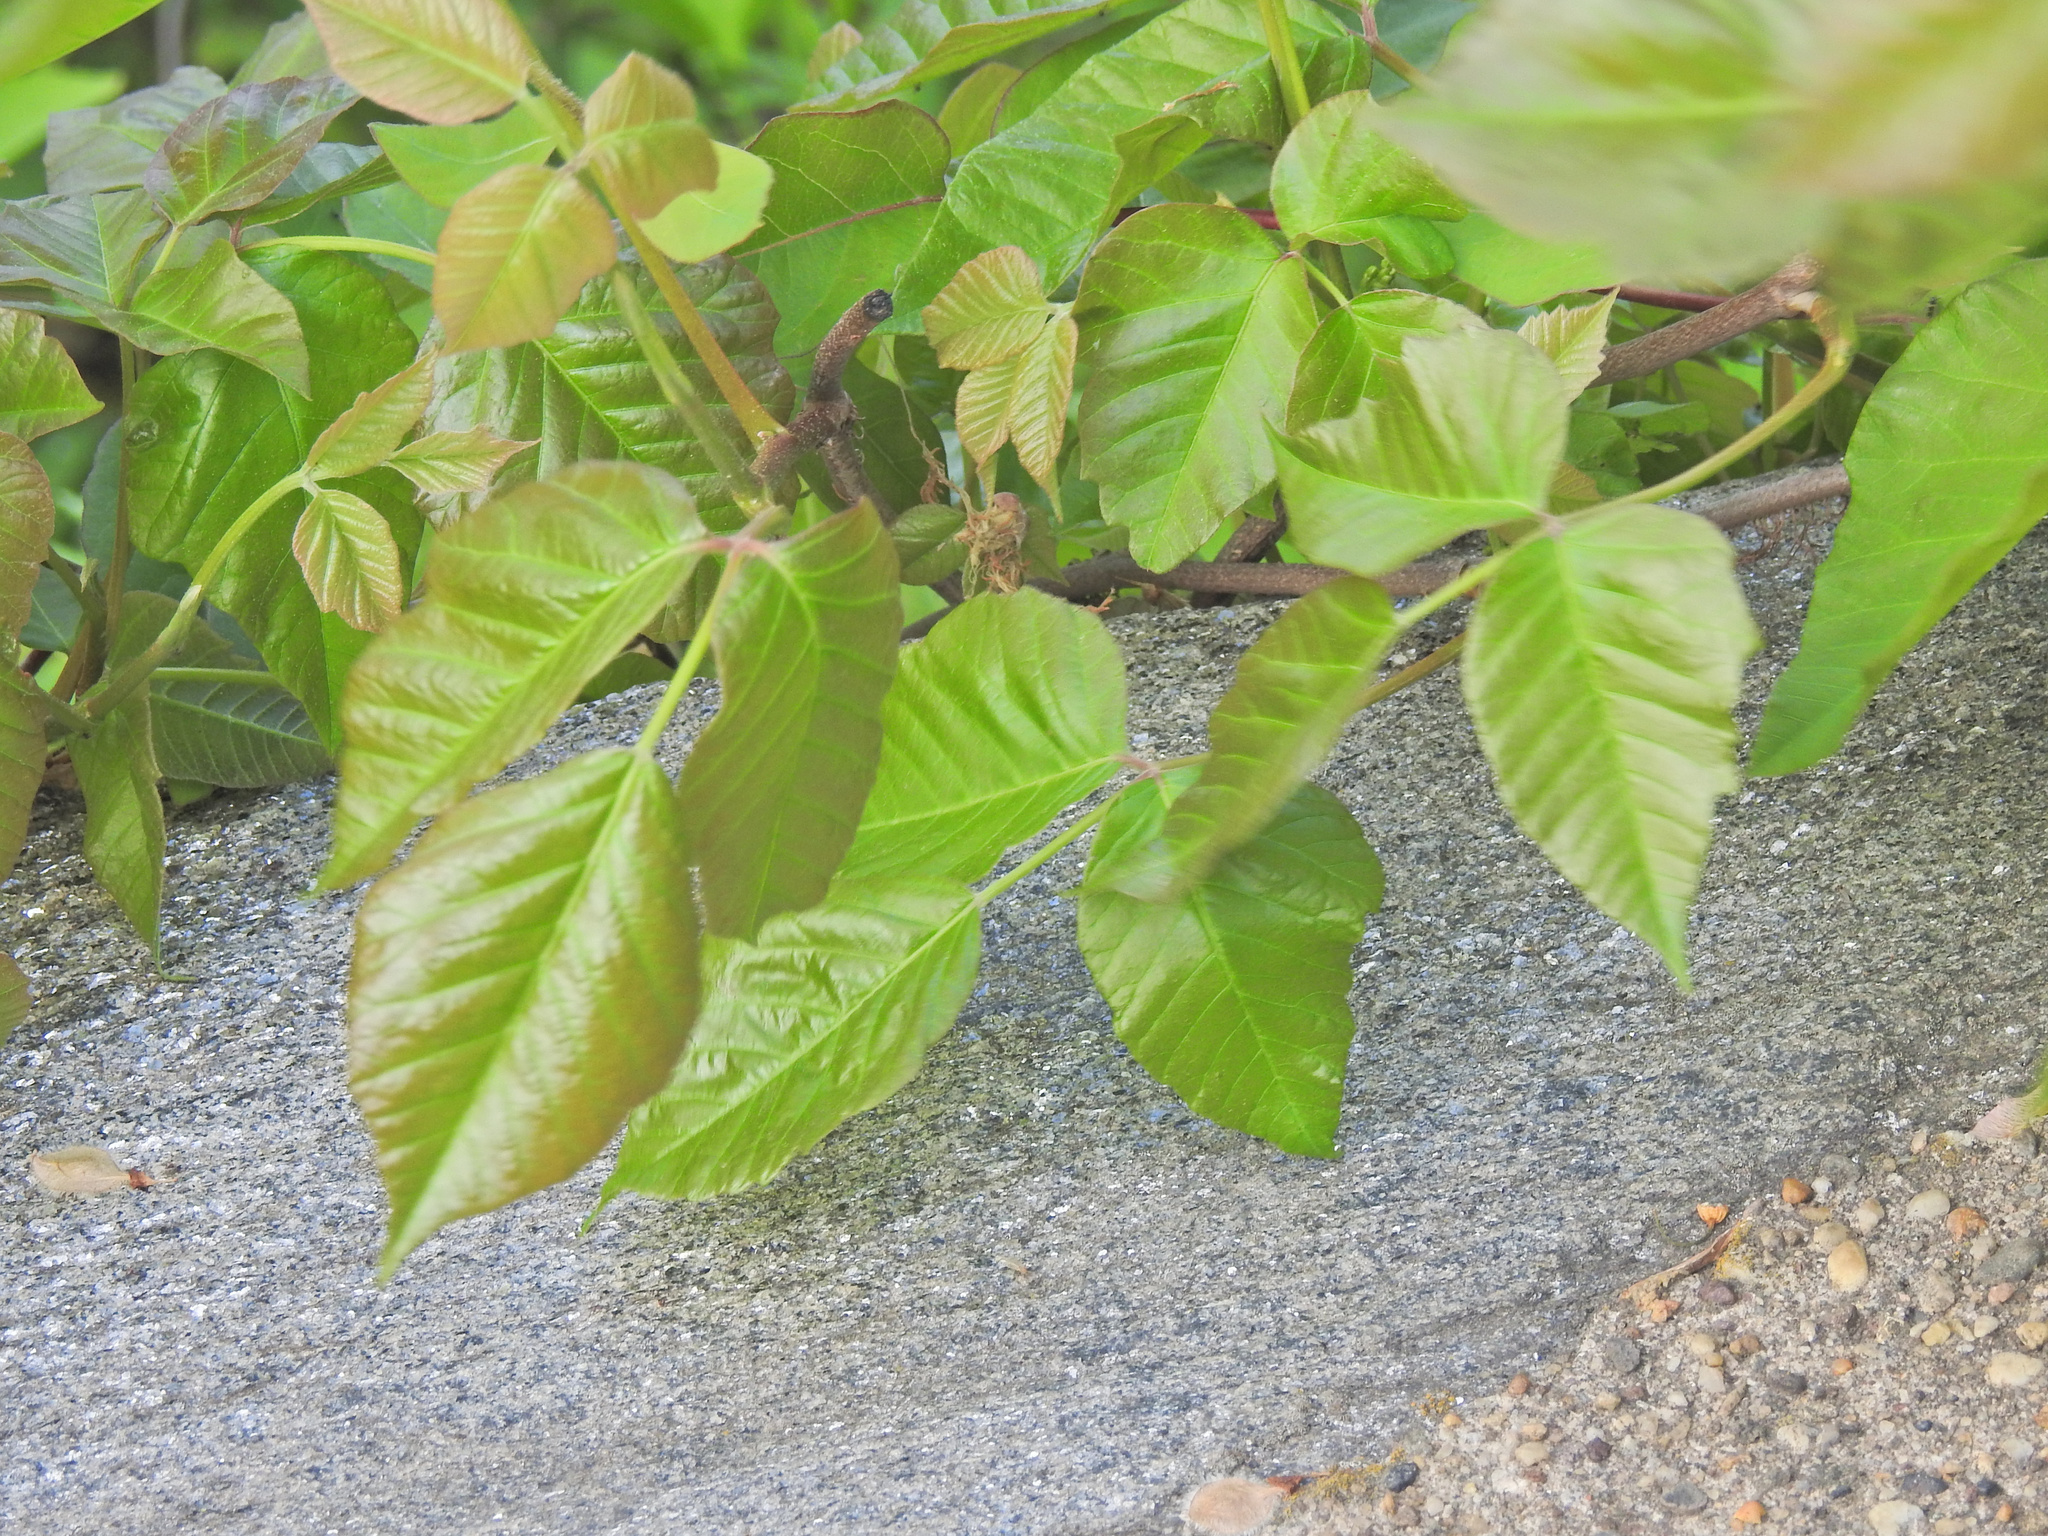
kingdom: Plantae
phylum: Tracheophyta
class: Magnoliopsida
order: Sapindales
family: Anacardiaceae
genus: Toxicodendron
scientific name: Toxicodendron radicans
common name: Poison ivy
